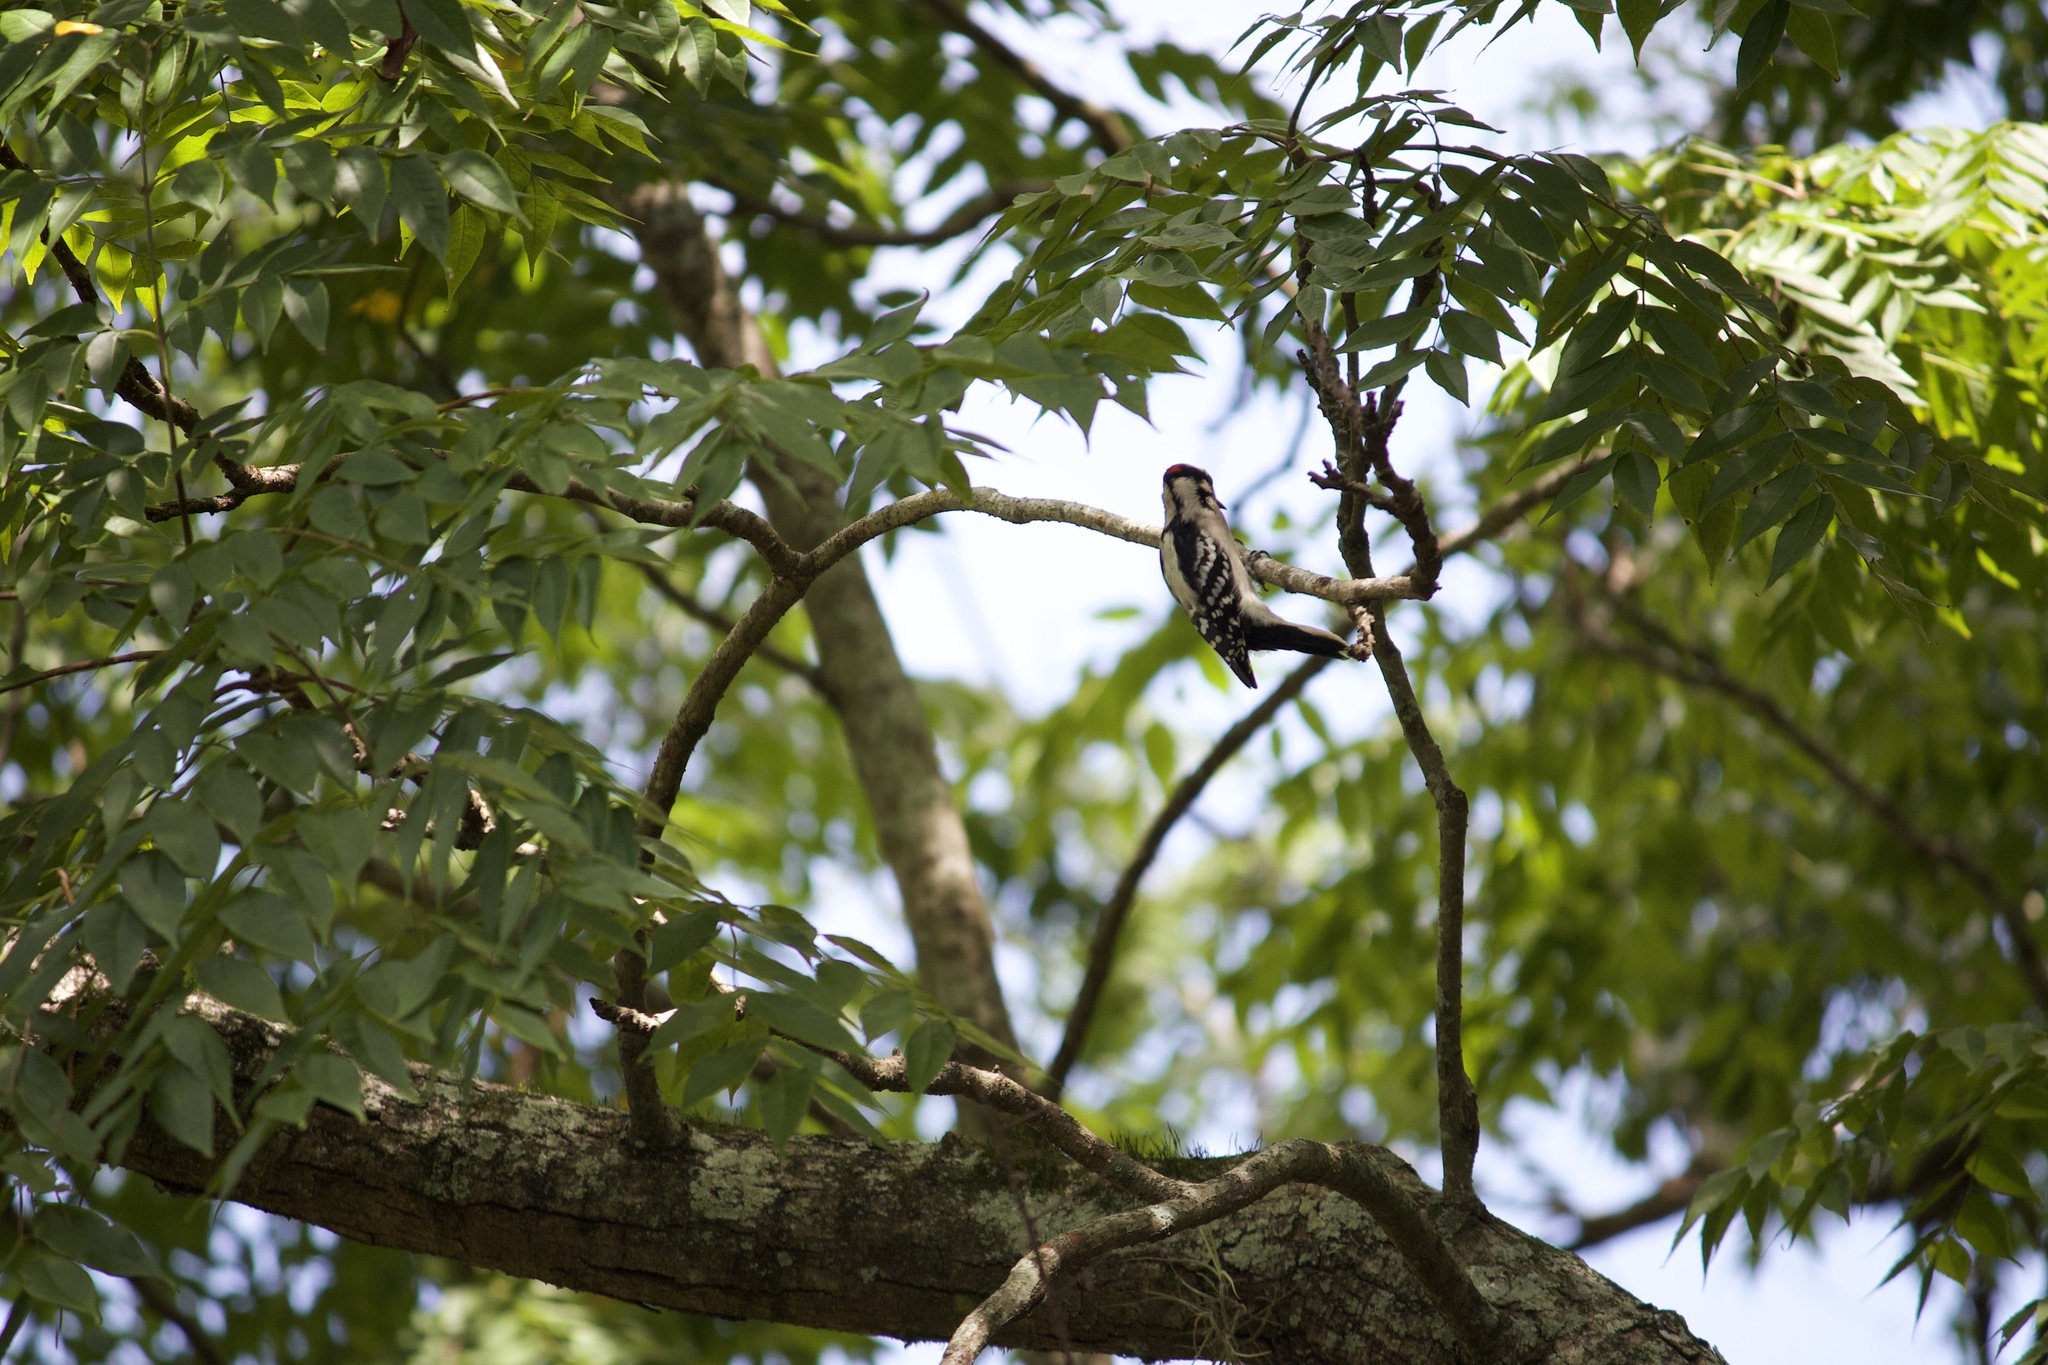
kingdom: Animalia
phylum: Chordata
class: Aves
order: Piciformes
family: Picidae
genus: Dryobates
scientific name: Dryobates pubescens
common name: Downy woodpecker
